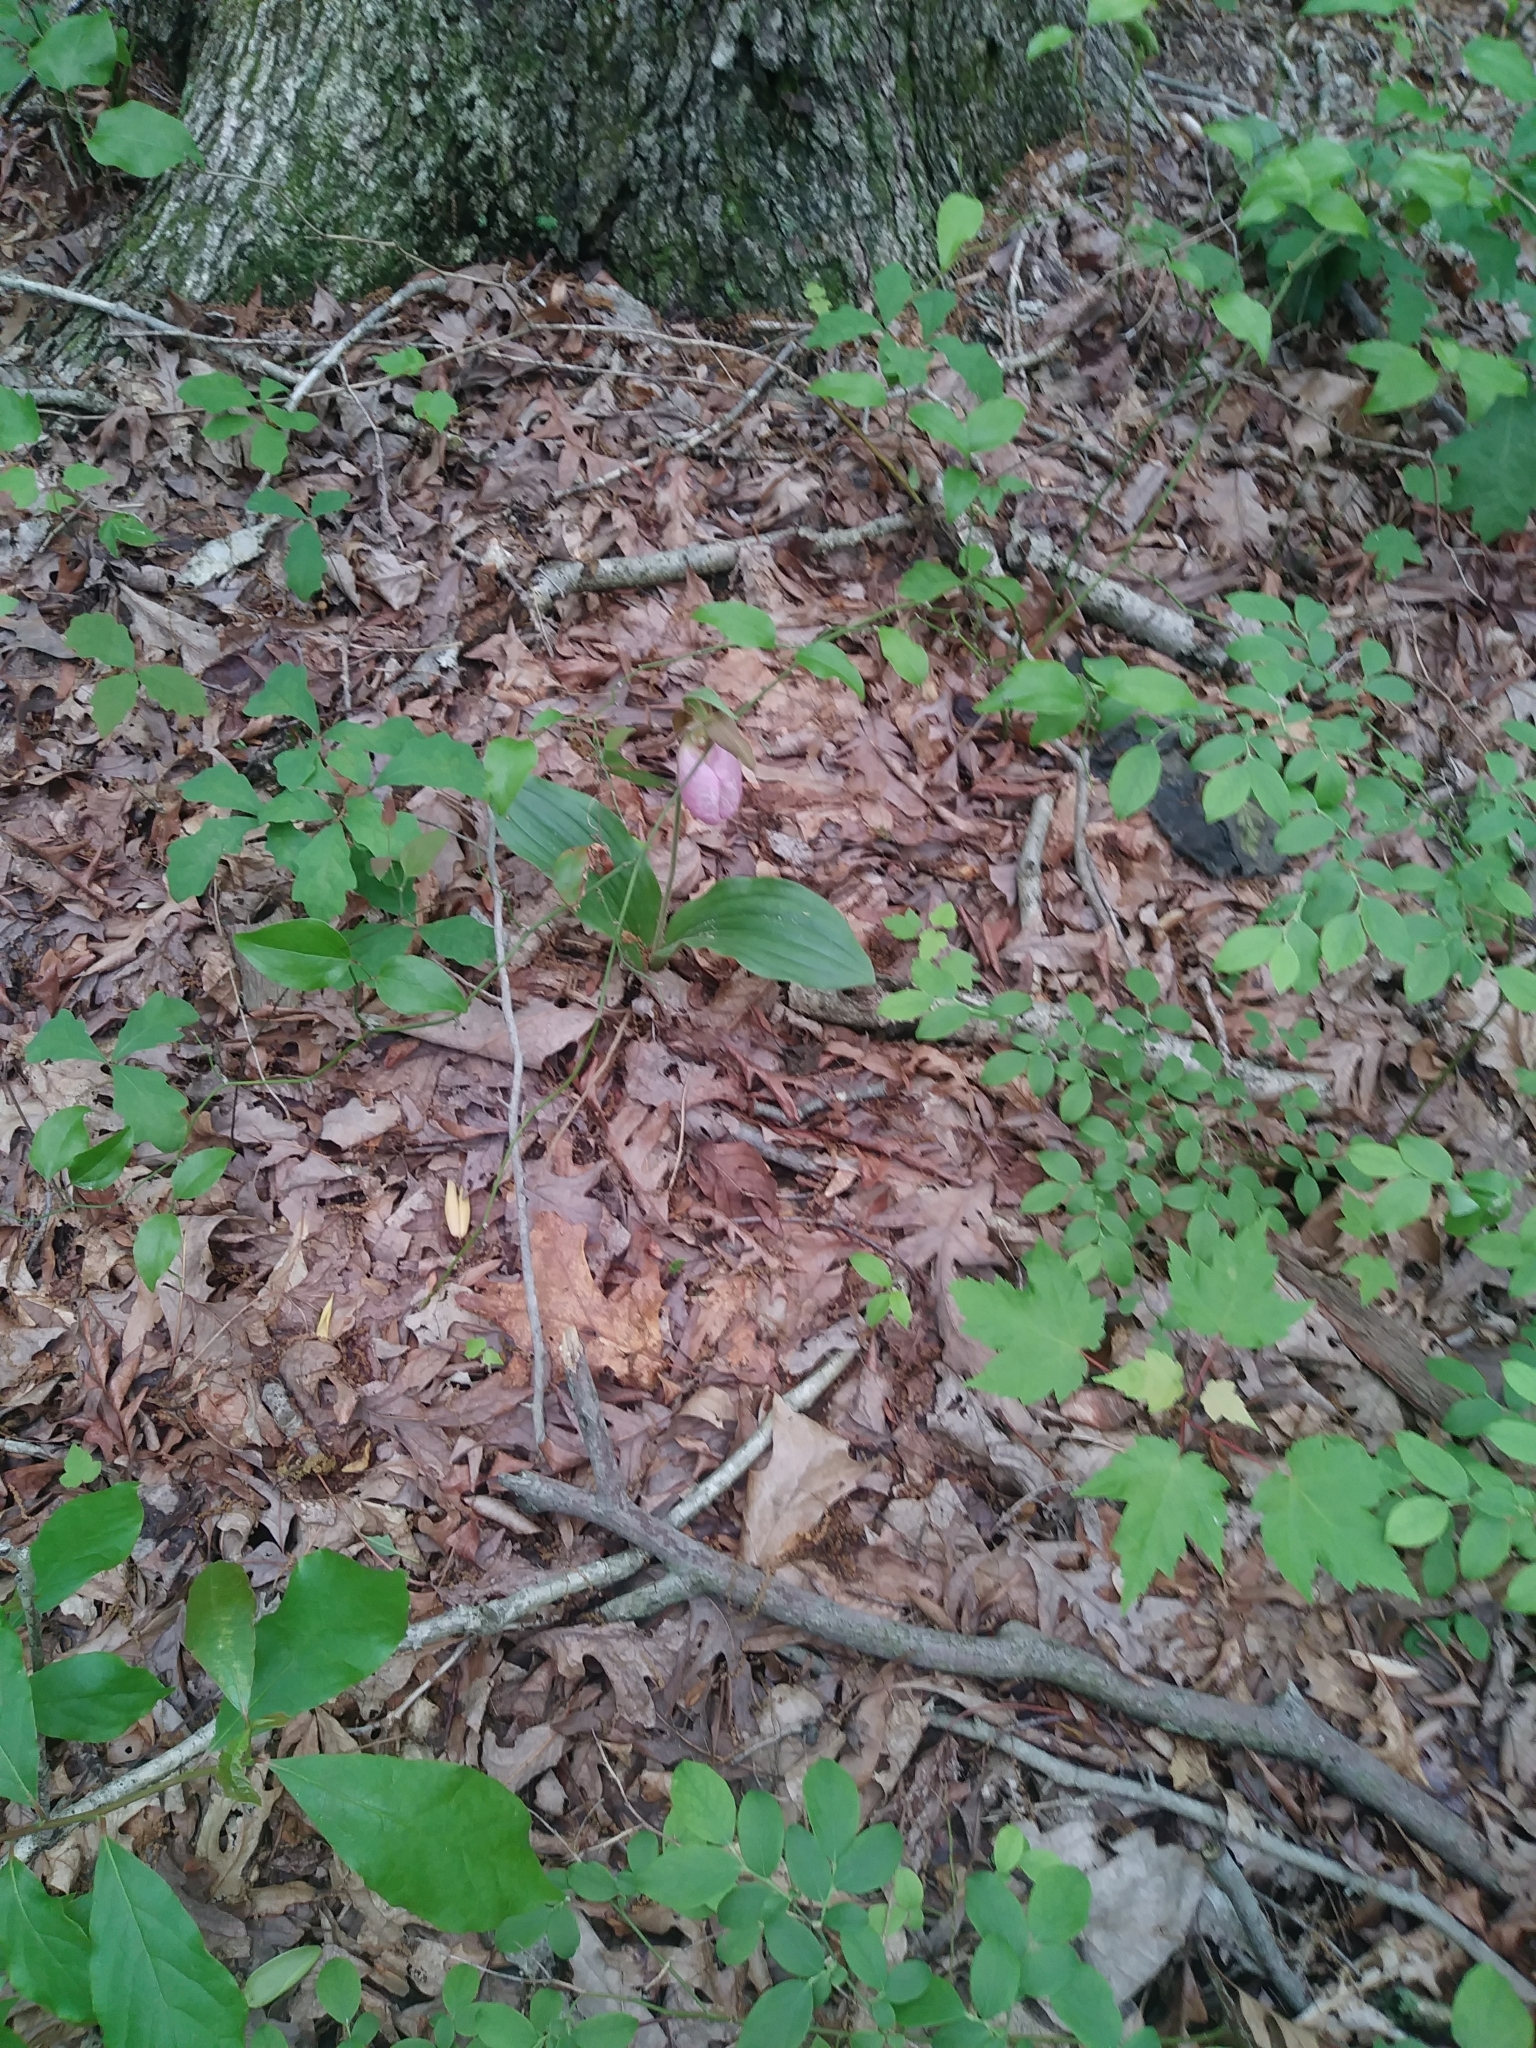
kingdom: Plantae
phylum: Tracheophyta
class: Liliopsida
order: Asparagales
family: Orchidaceae
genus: Cypripedium
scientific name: Cypripedium acaule
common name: Pink lady's-slipper
